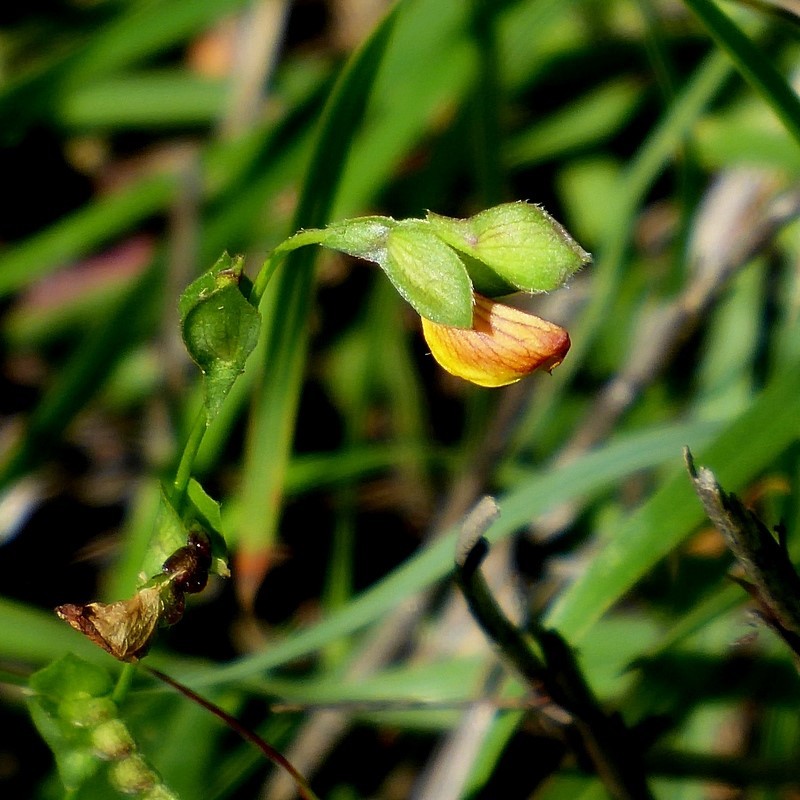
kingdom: Plantae
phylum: Tracheophyta
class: Magnoliopsida
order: Fabales
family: Fabaceae
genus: Zornia
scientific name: Zornia dyctiocarpa
